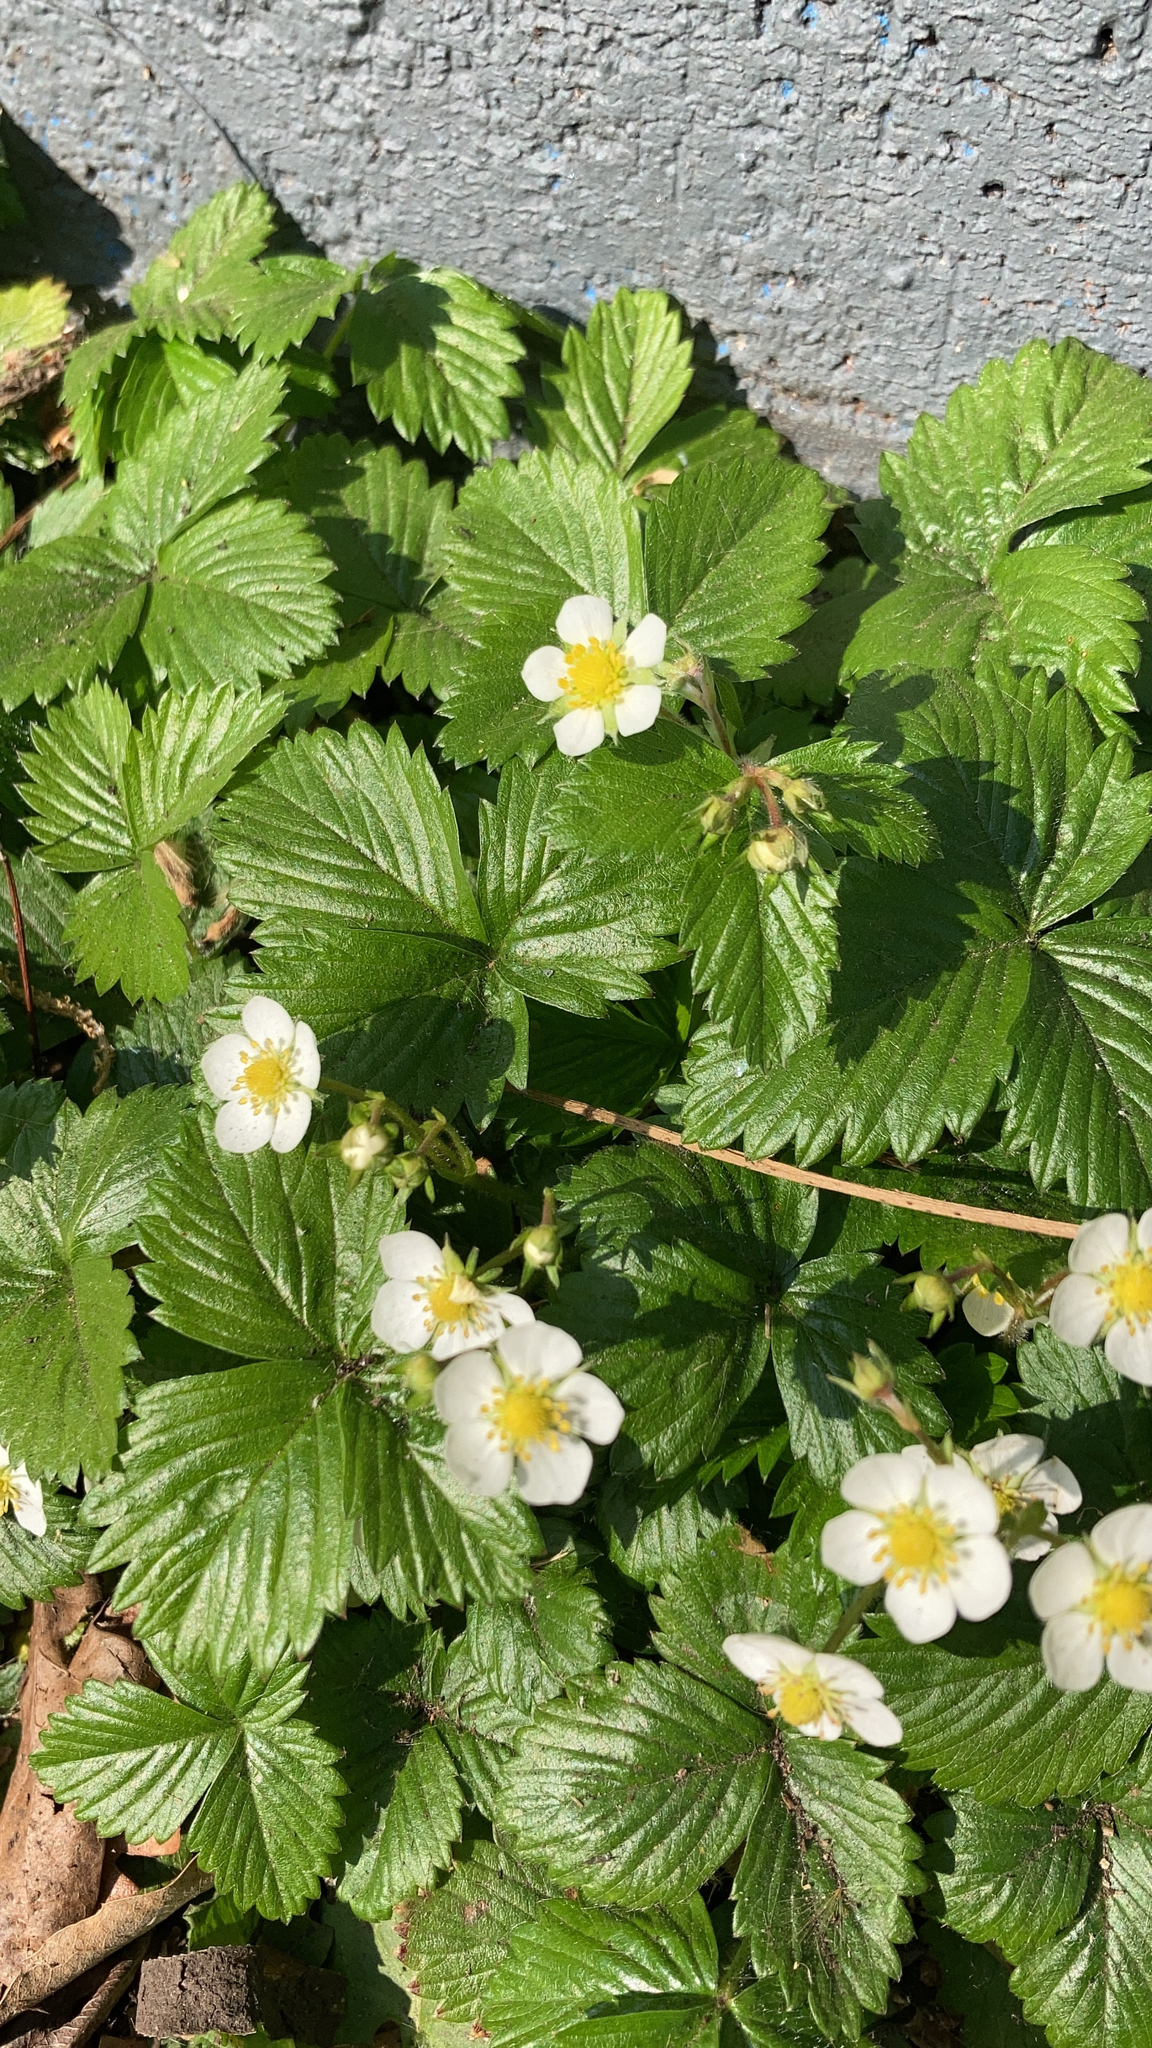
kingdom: Plantae
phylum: Tracheophyta
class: Magnoliopsida
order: Rosales
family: Rosaceae
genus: Fragaria
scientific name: Fragaria vesca
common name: Wild strawberry
